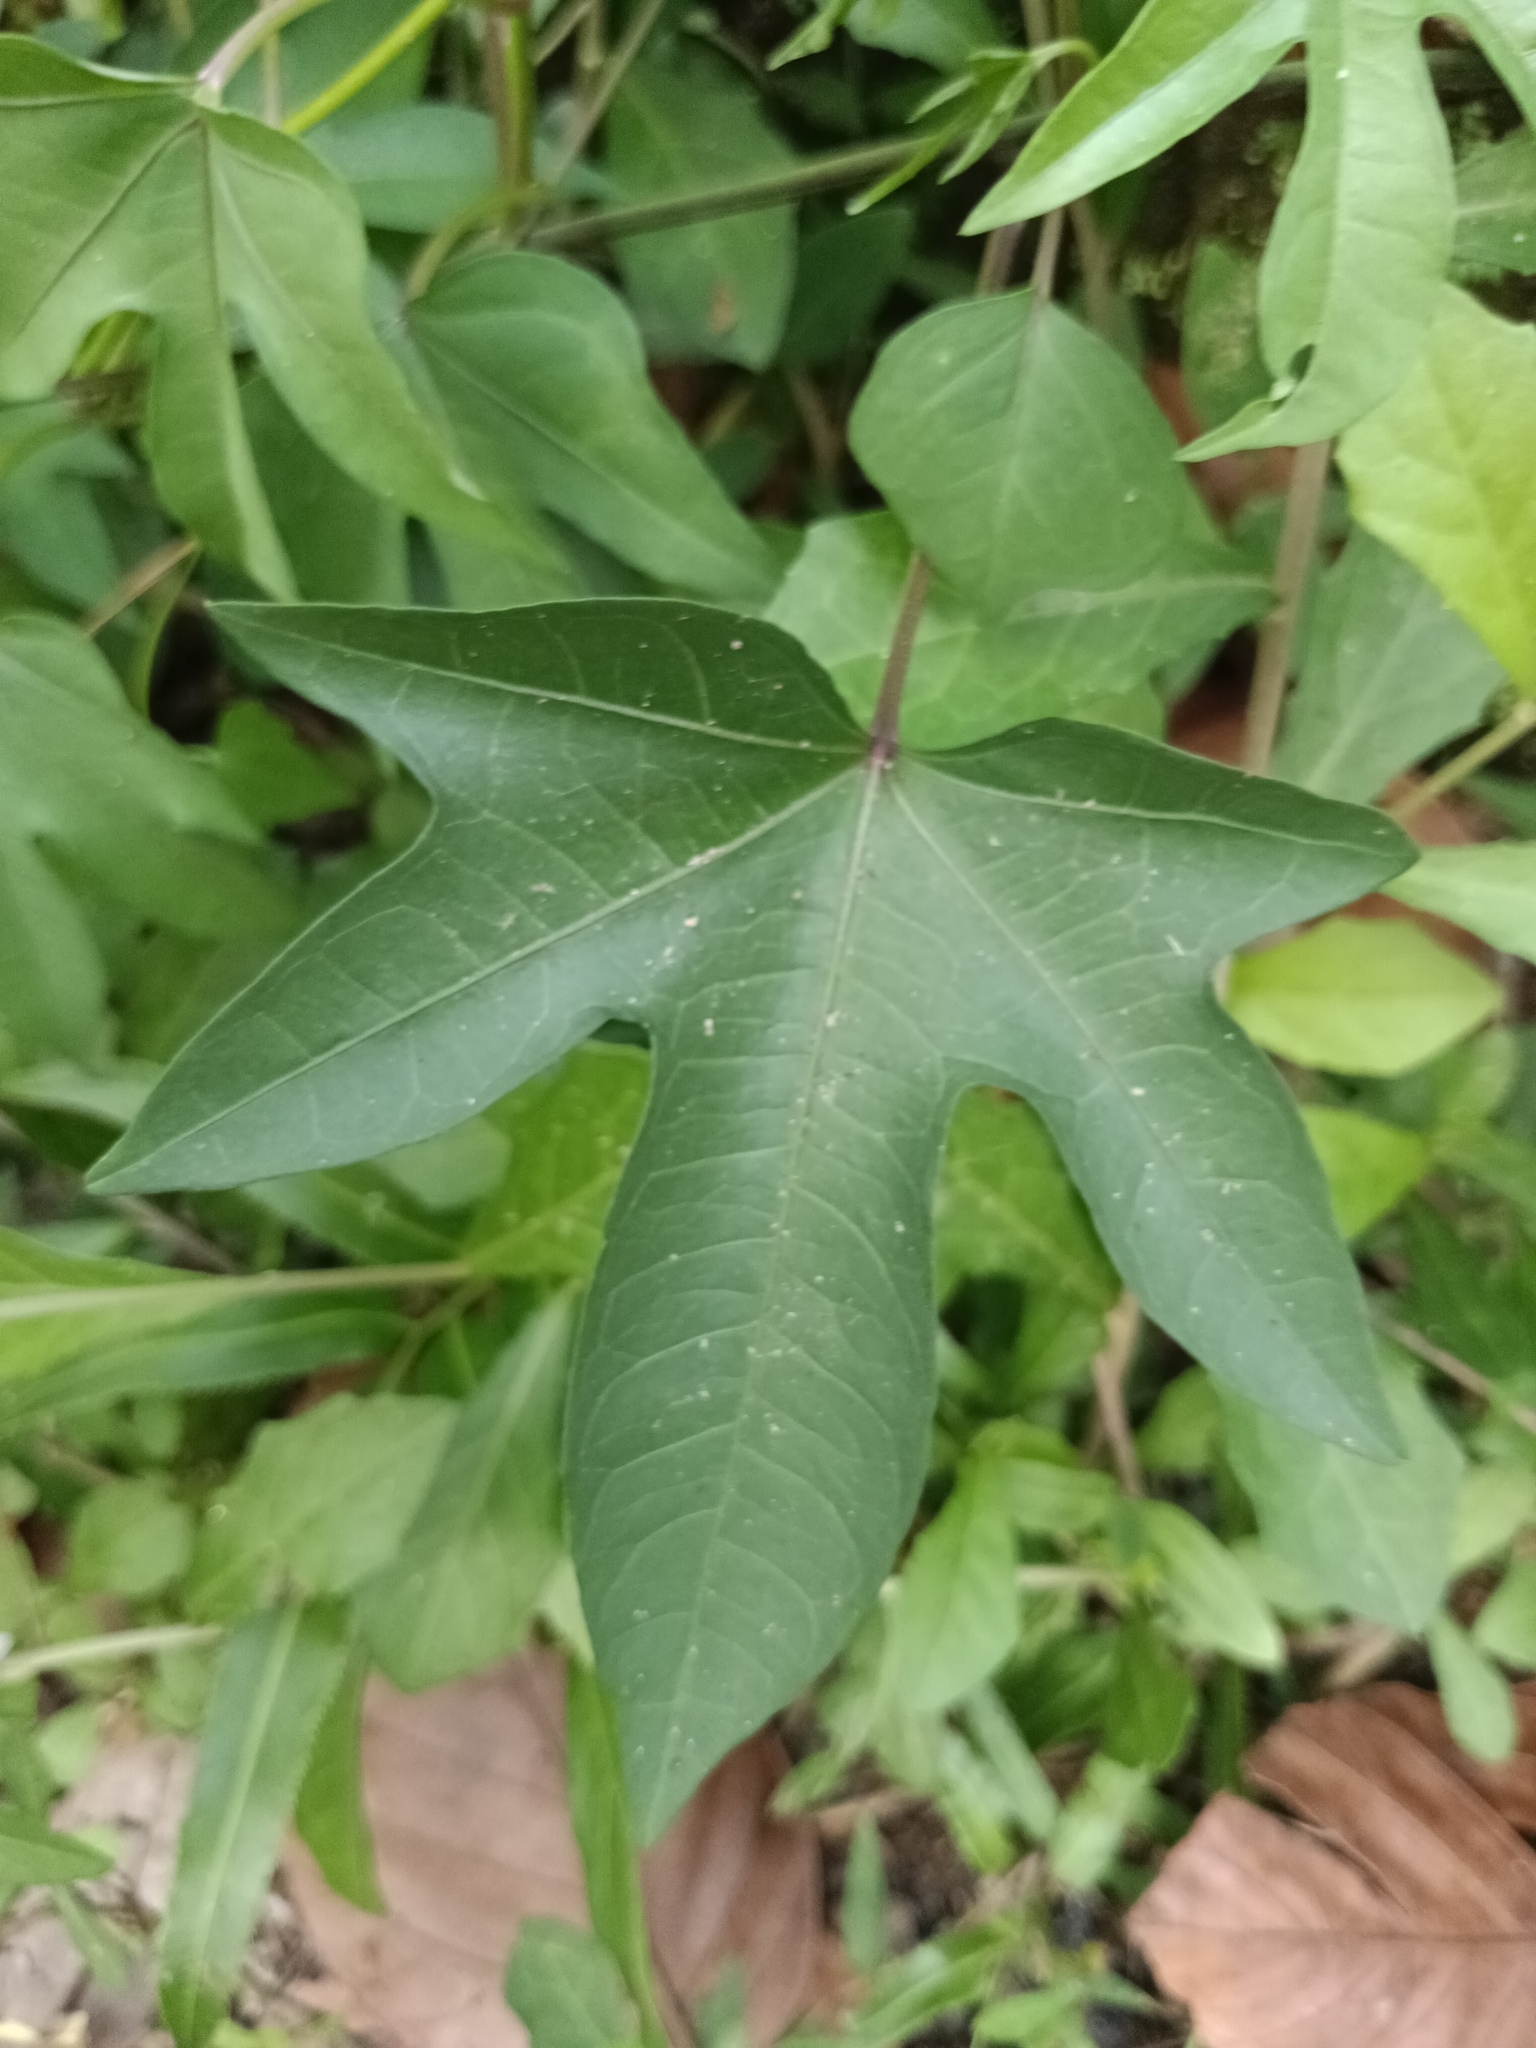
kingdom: Plantae
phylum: Tracheophyta
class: Magnoliopsida
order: Solanales
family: Convolvulaceae
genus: Ipomoea
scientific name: Ipomoea cairica
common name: Mile a minute vine
